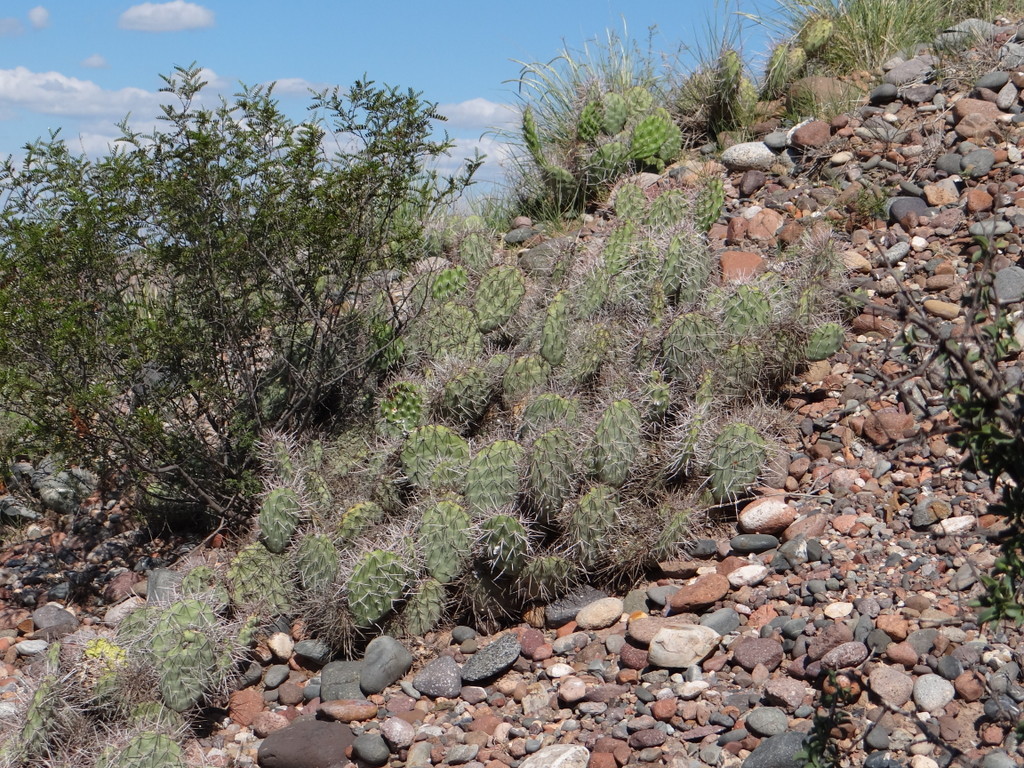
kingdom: Plantae
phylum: Tracheophyta
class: Magnoliopsida
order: Caryophyllales
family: Cactaceae
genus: Opuntia
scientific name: Opuntia sulphurea
